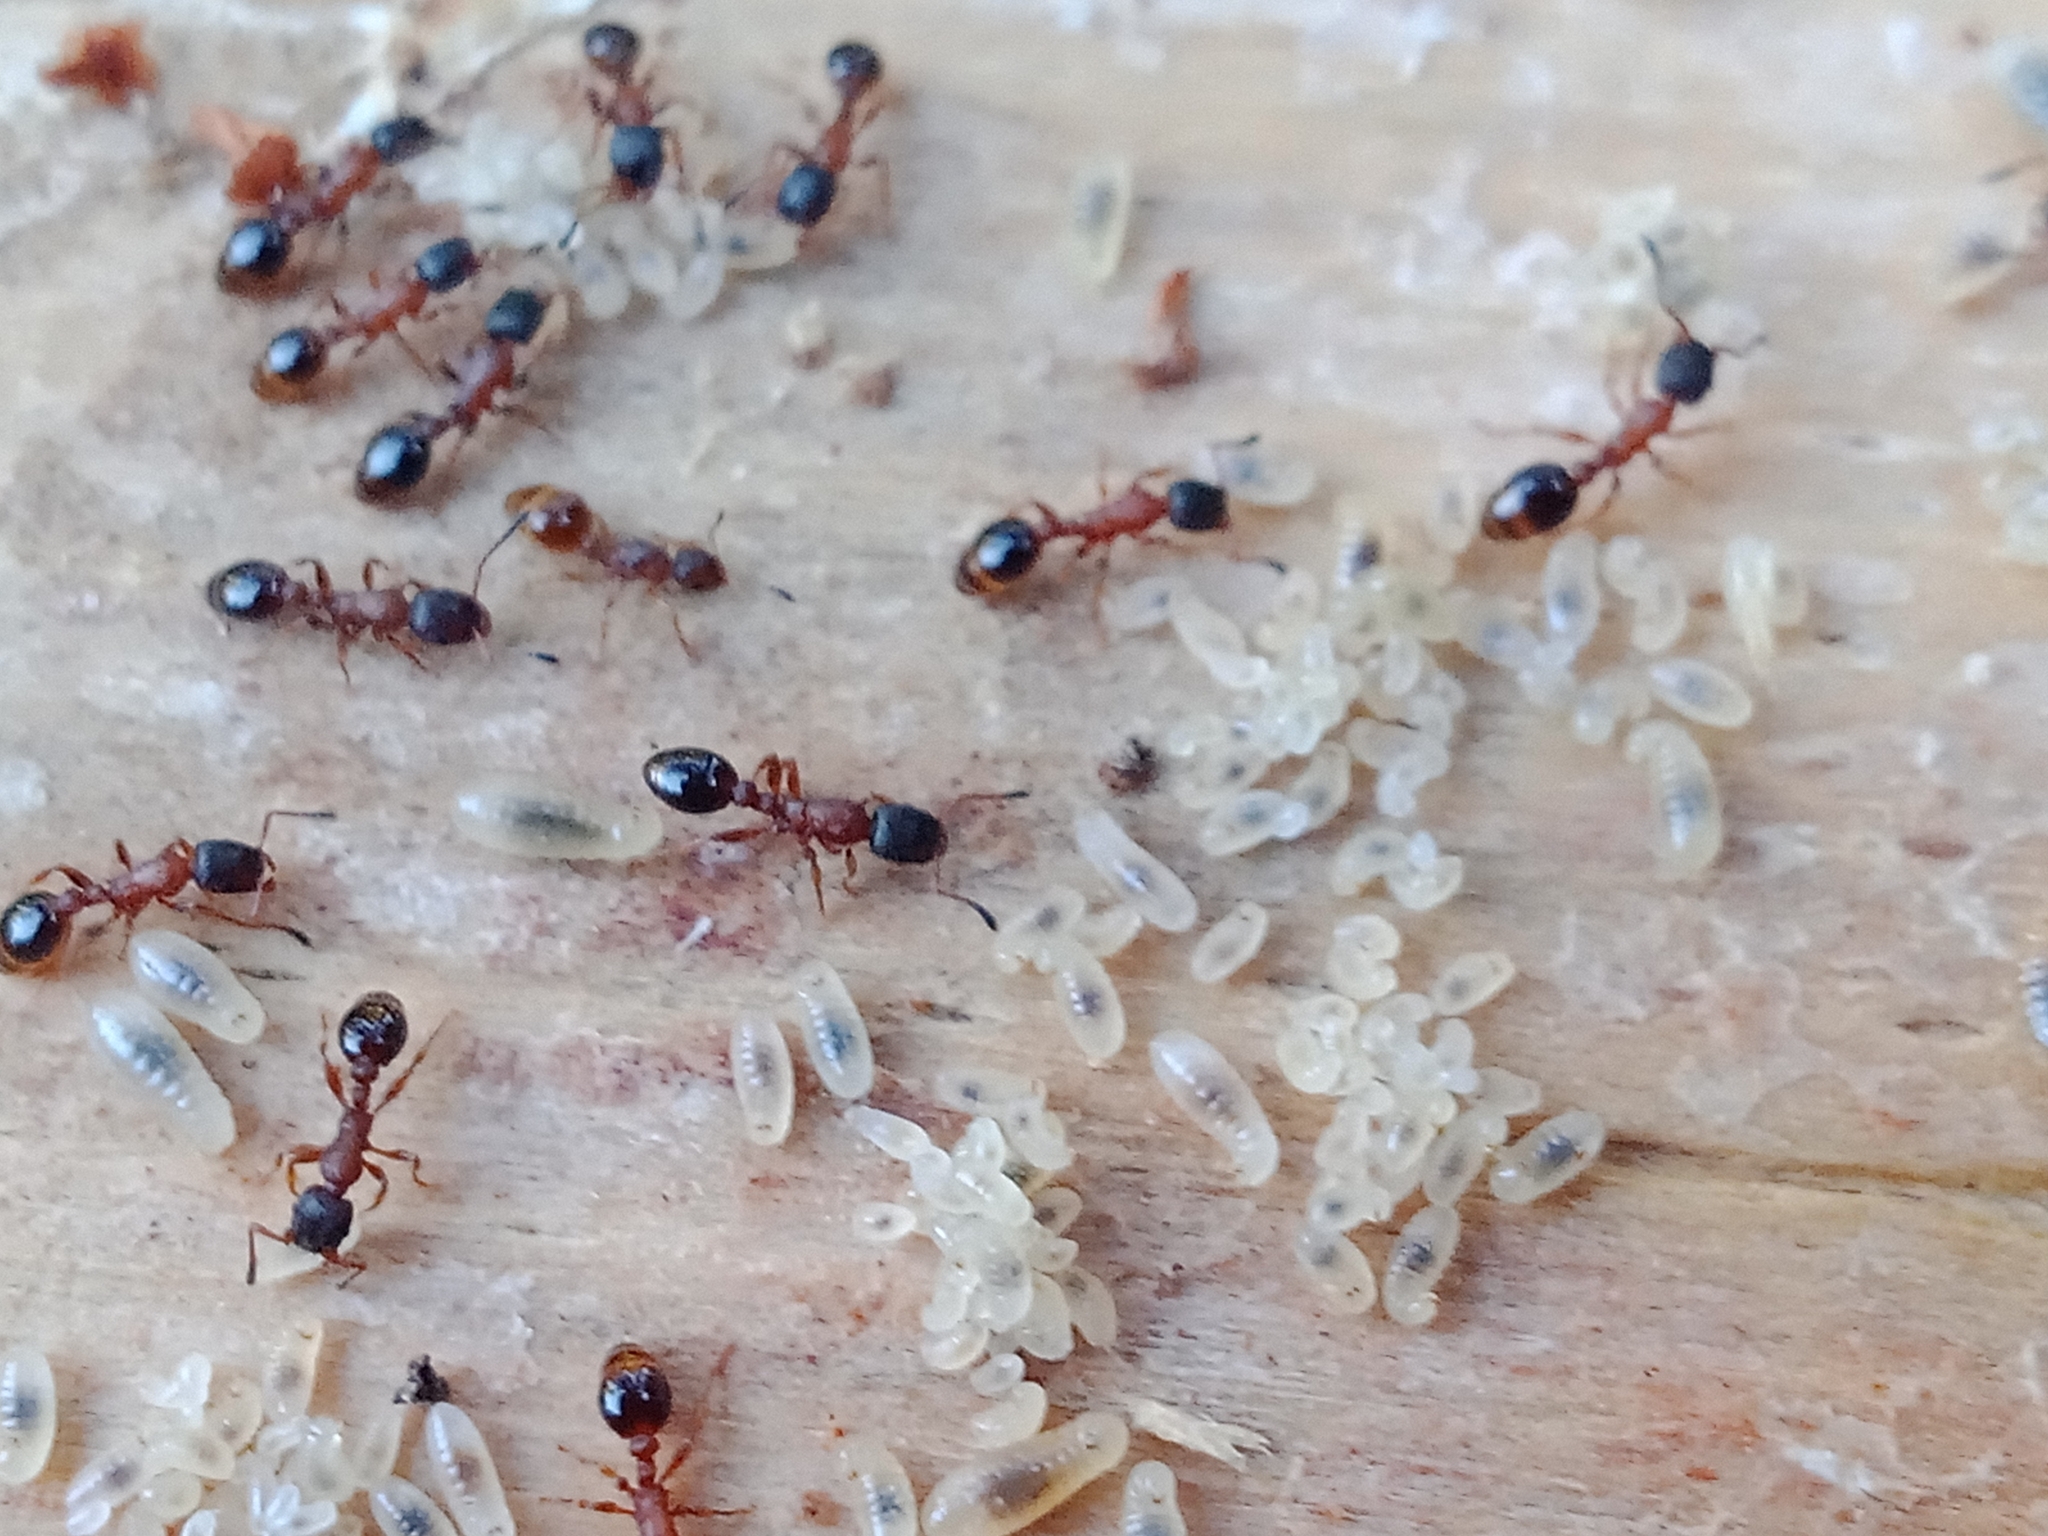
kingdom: Animalia
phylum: Arthropoda
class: Insecta
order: Hymenoptera
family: Formicidae
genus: Leptothorax
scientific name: Leptothorax acervorum
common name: Slender ant
